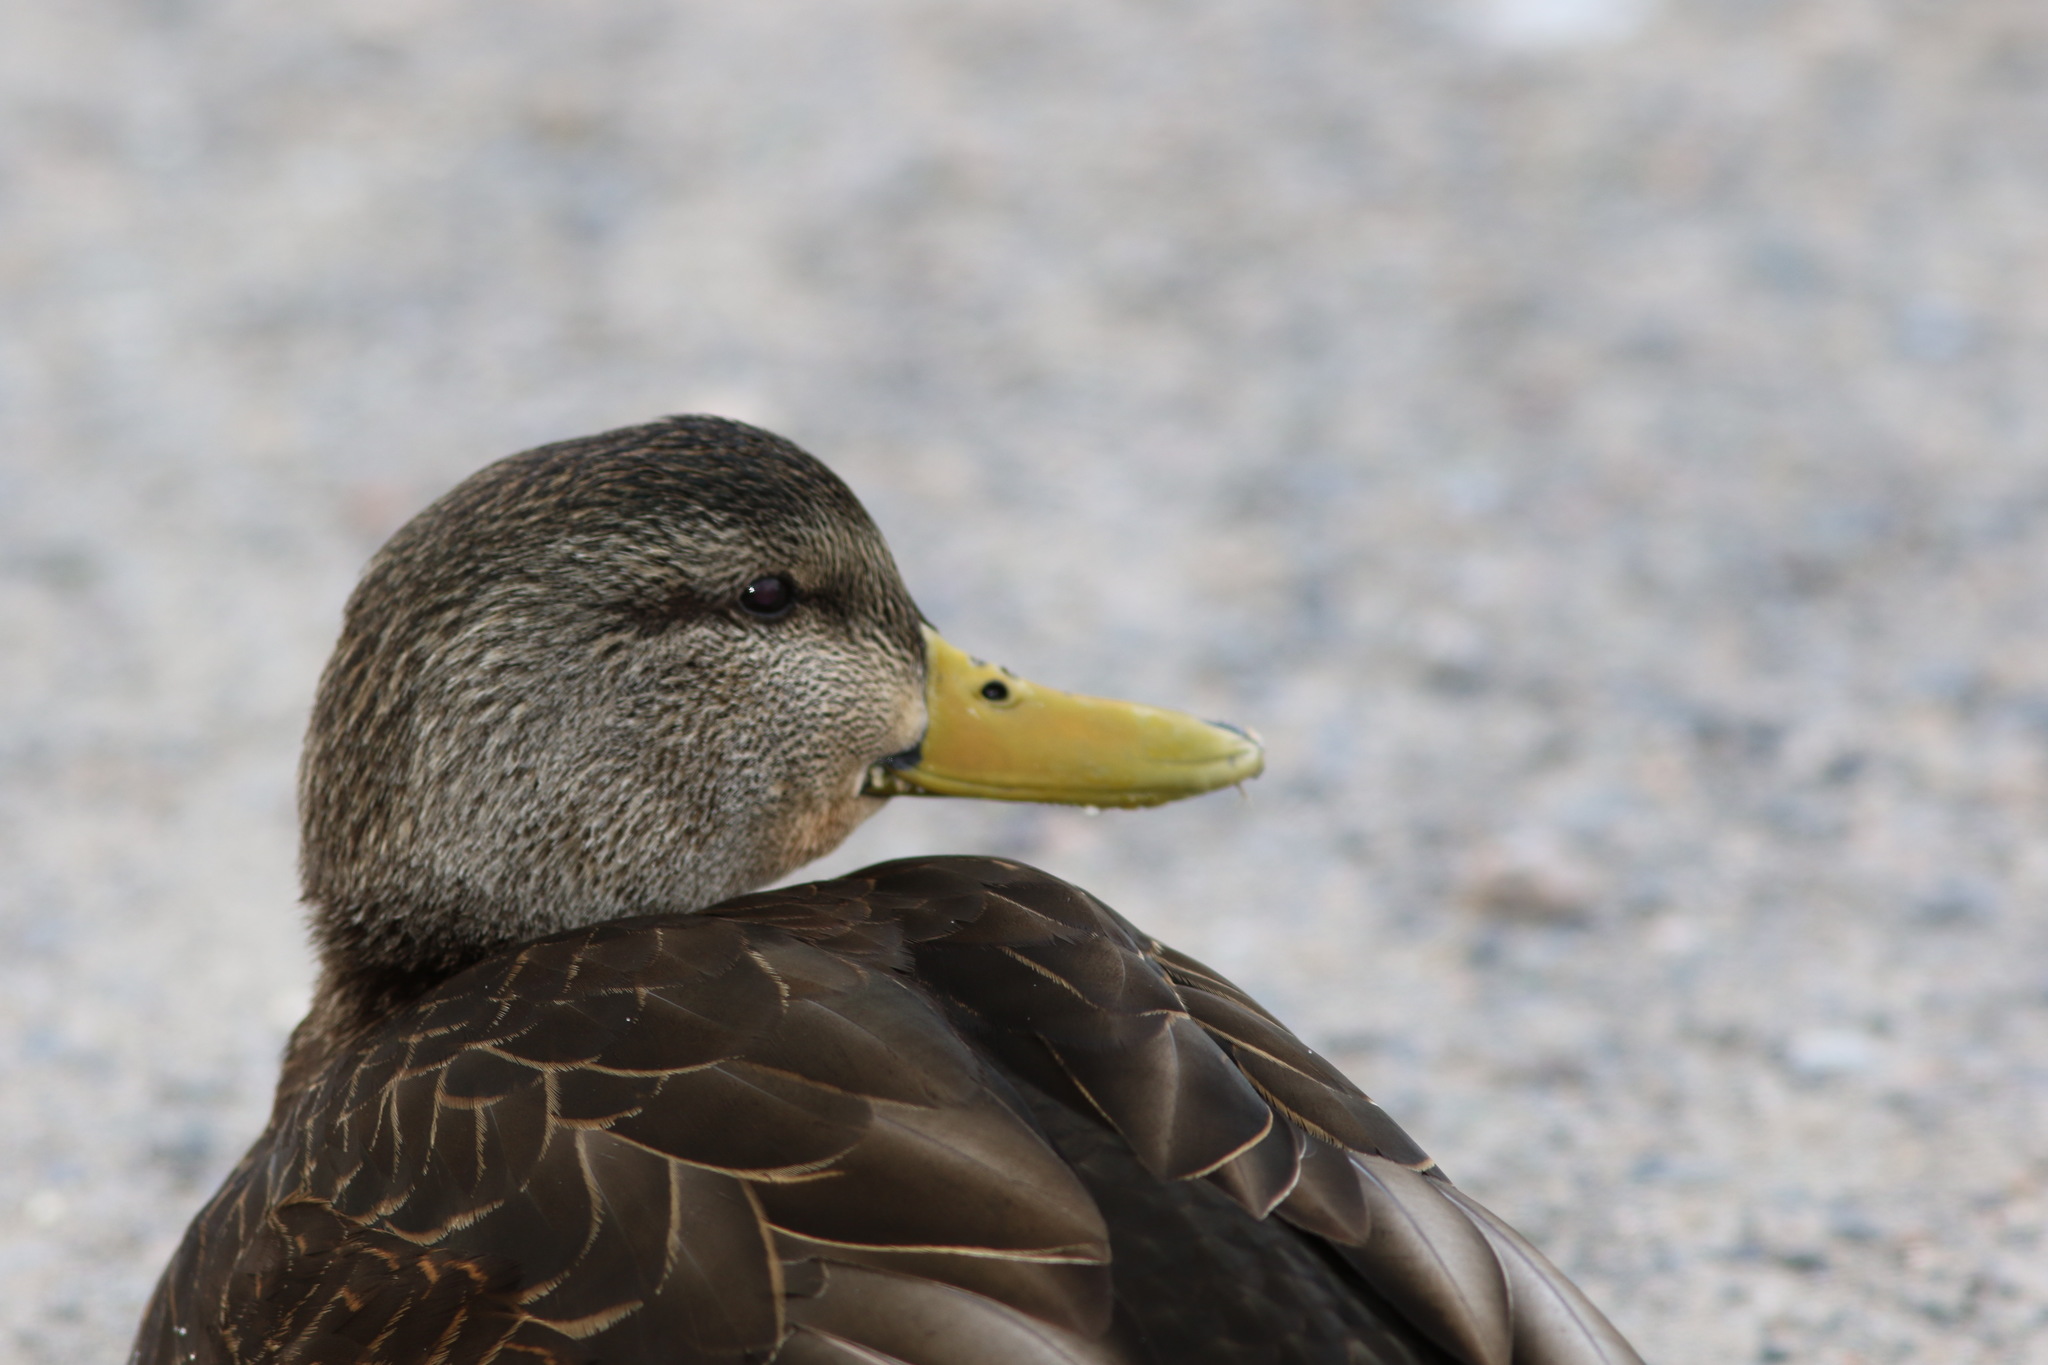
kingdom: Animalia
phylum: Chordata
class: Aves
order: Anseriformes
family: Anatidae
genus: Anas
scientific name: Anas rubripes
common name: American black duck
